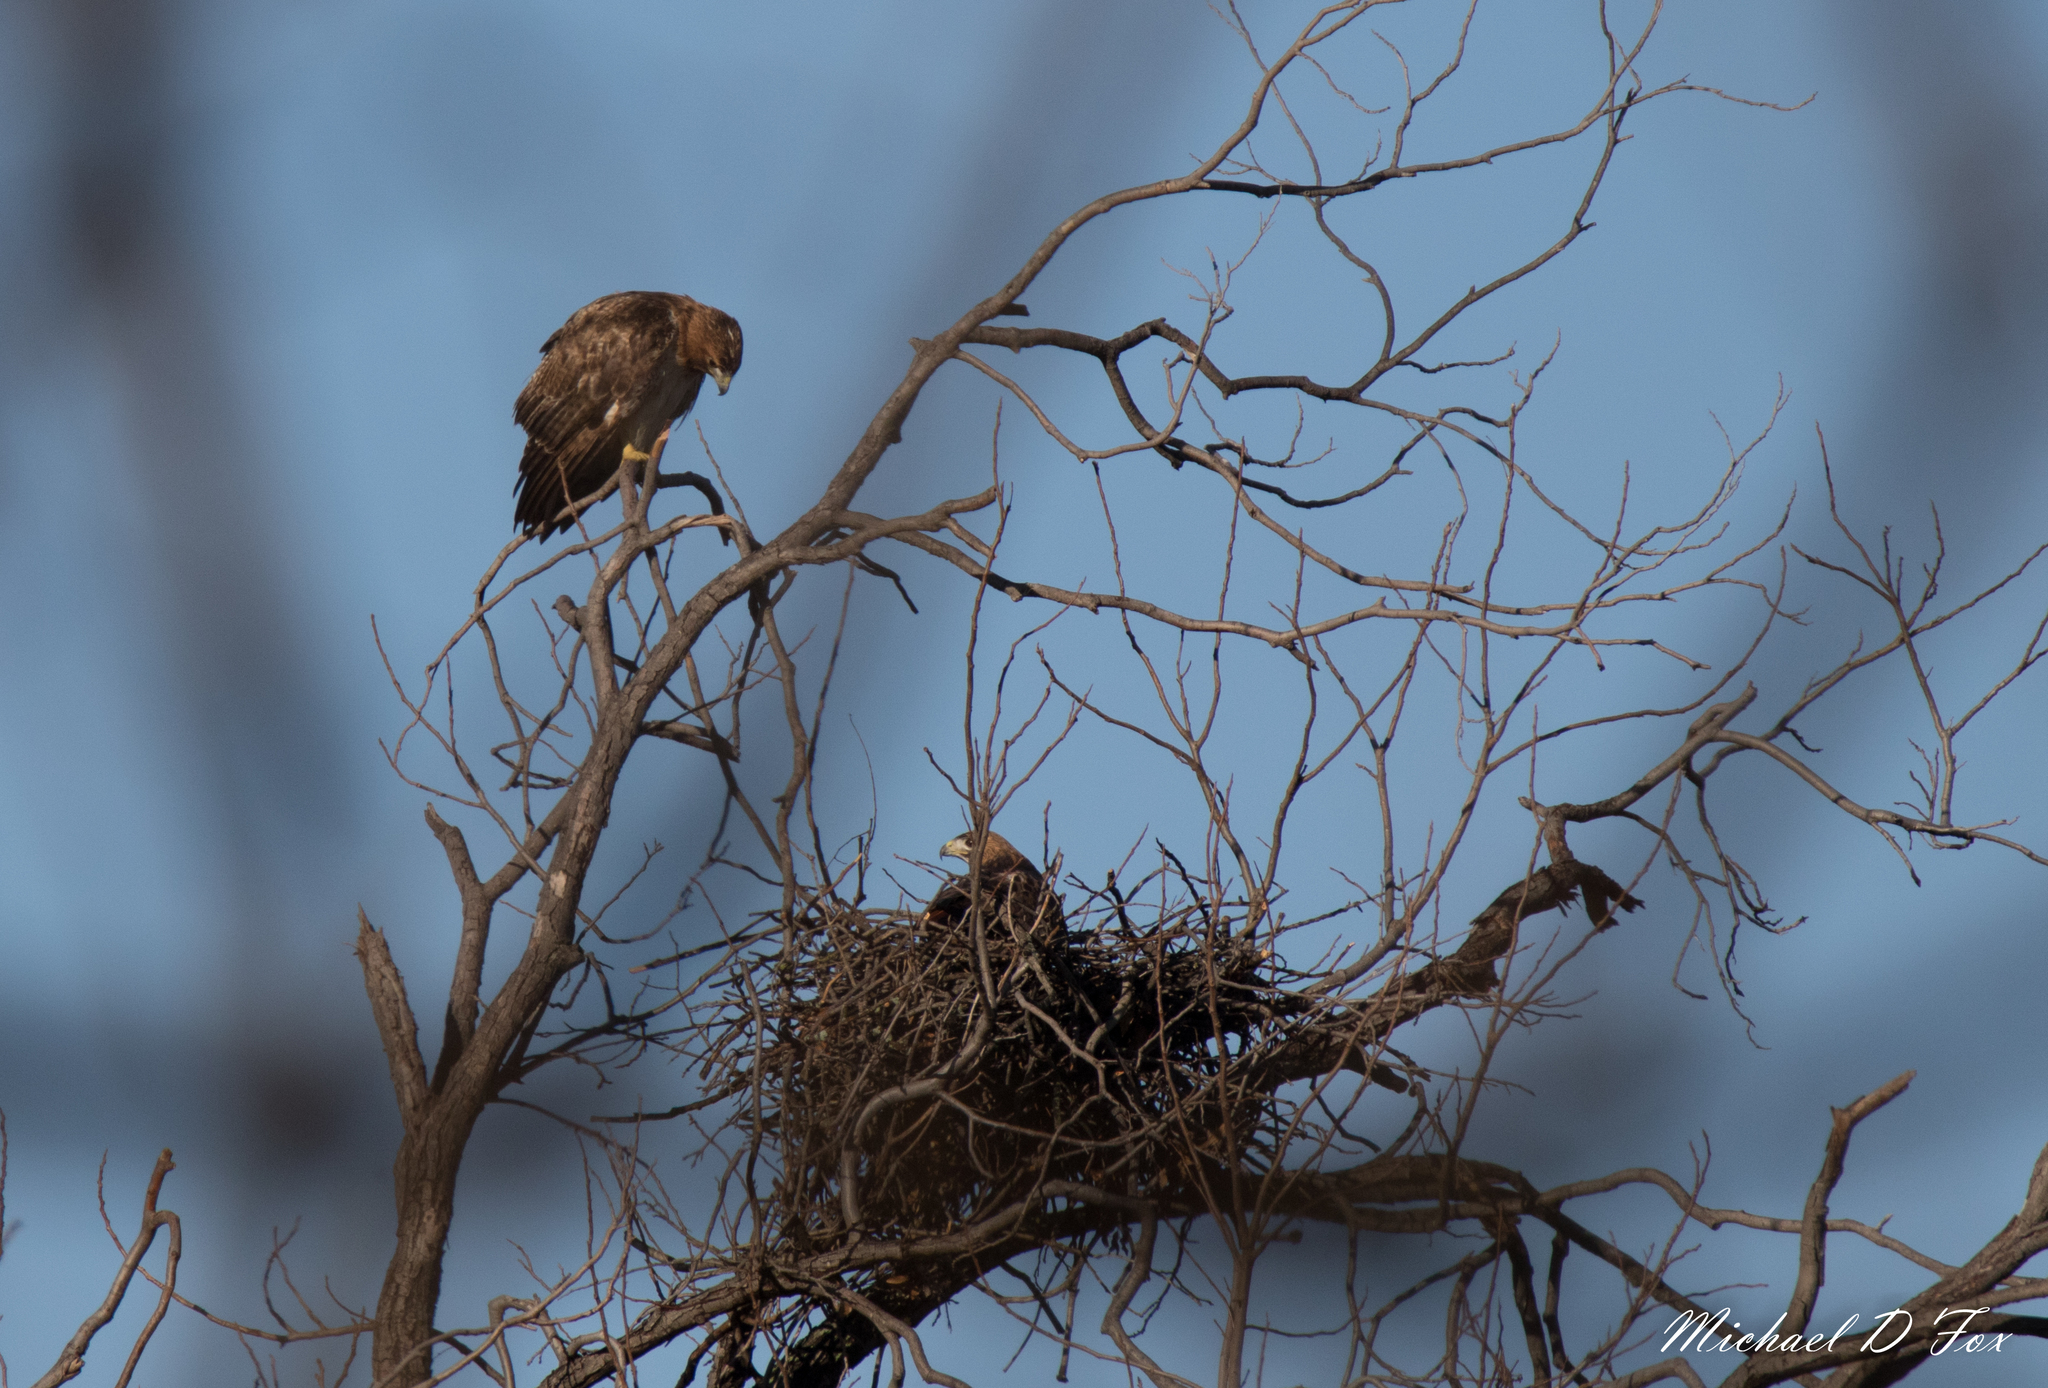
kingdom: Animalia
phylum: Chordata
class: Aves
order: Accipitriformes
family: Accipitridae
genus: Buteo
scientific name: Buteo jamaicensis
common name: Red-tailed hawk
